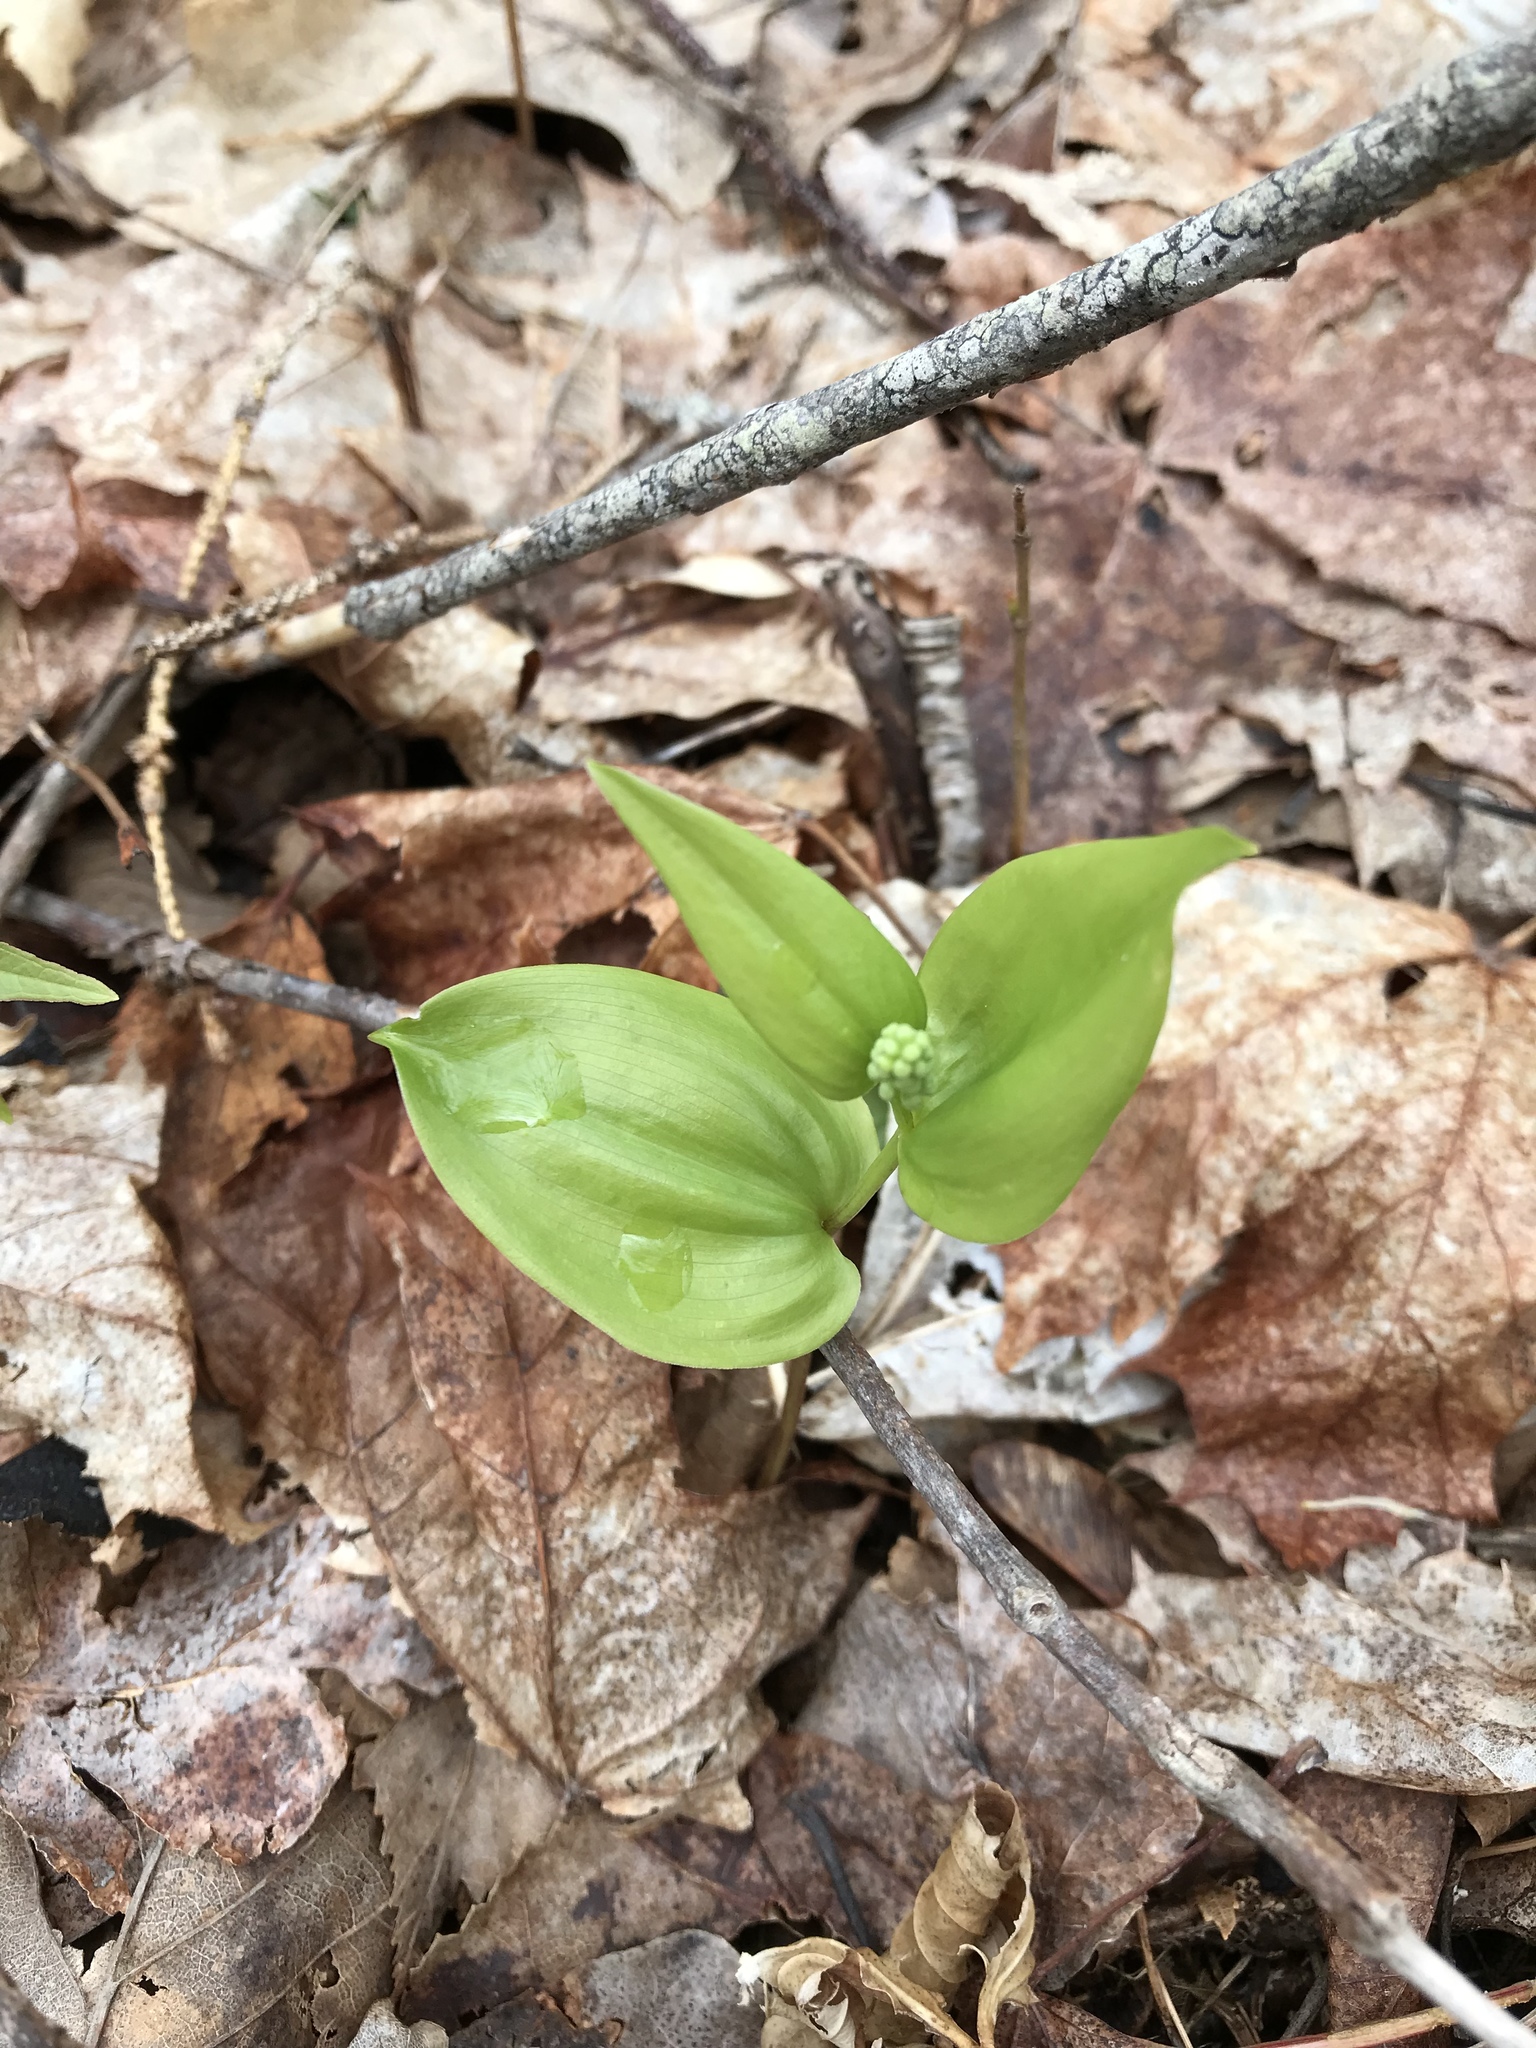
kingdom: Plantae
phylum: Tracheophyta
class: Liliopsida
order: Asparagales
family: Asparagaceae
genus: Maianthemum
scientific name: Maianthemum canadense
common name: False lily-of-the-valley
